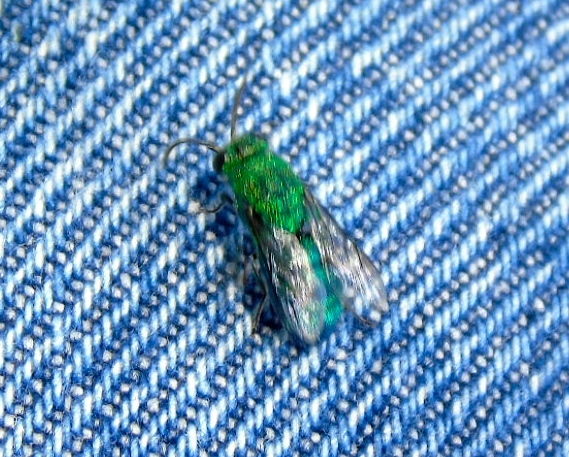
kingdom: Animalia
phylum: Arthropoda
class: Insecta
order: Hymenoptera
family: Chrysididae
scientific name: Chrysididae
